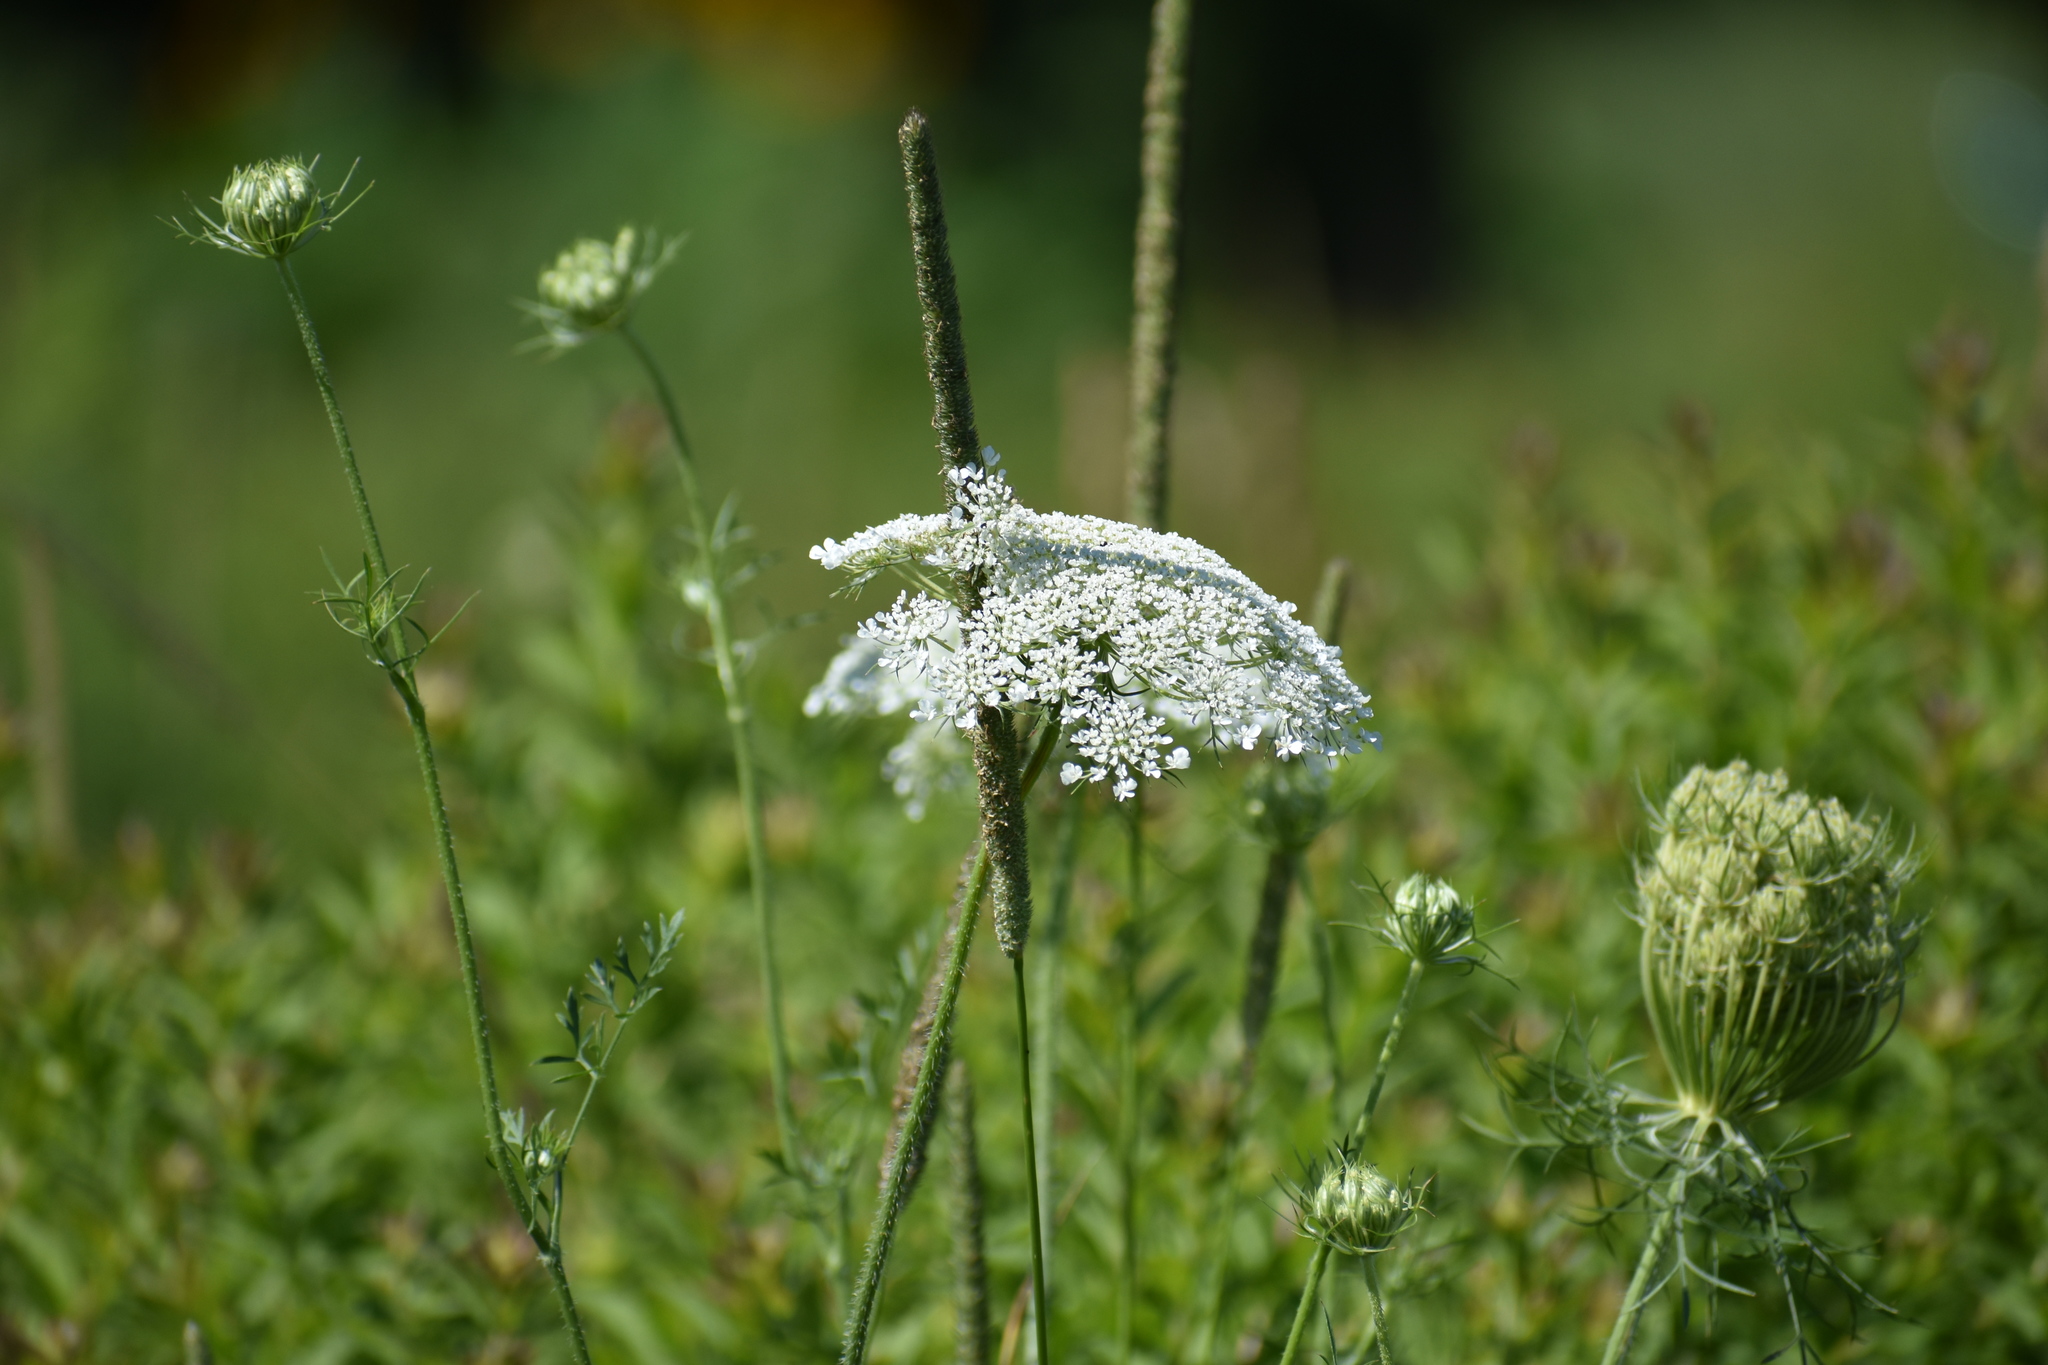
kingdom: Plantae
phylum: Tracheophyta
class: Magnoliopsida
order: Apiales
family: Apiaceae
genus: Daucus
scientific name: Daucus carota
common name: Wild carrot
